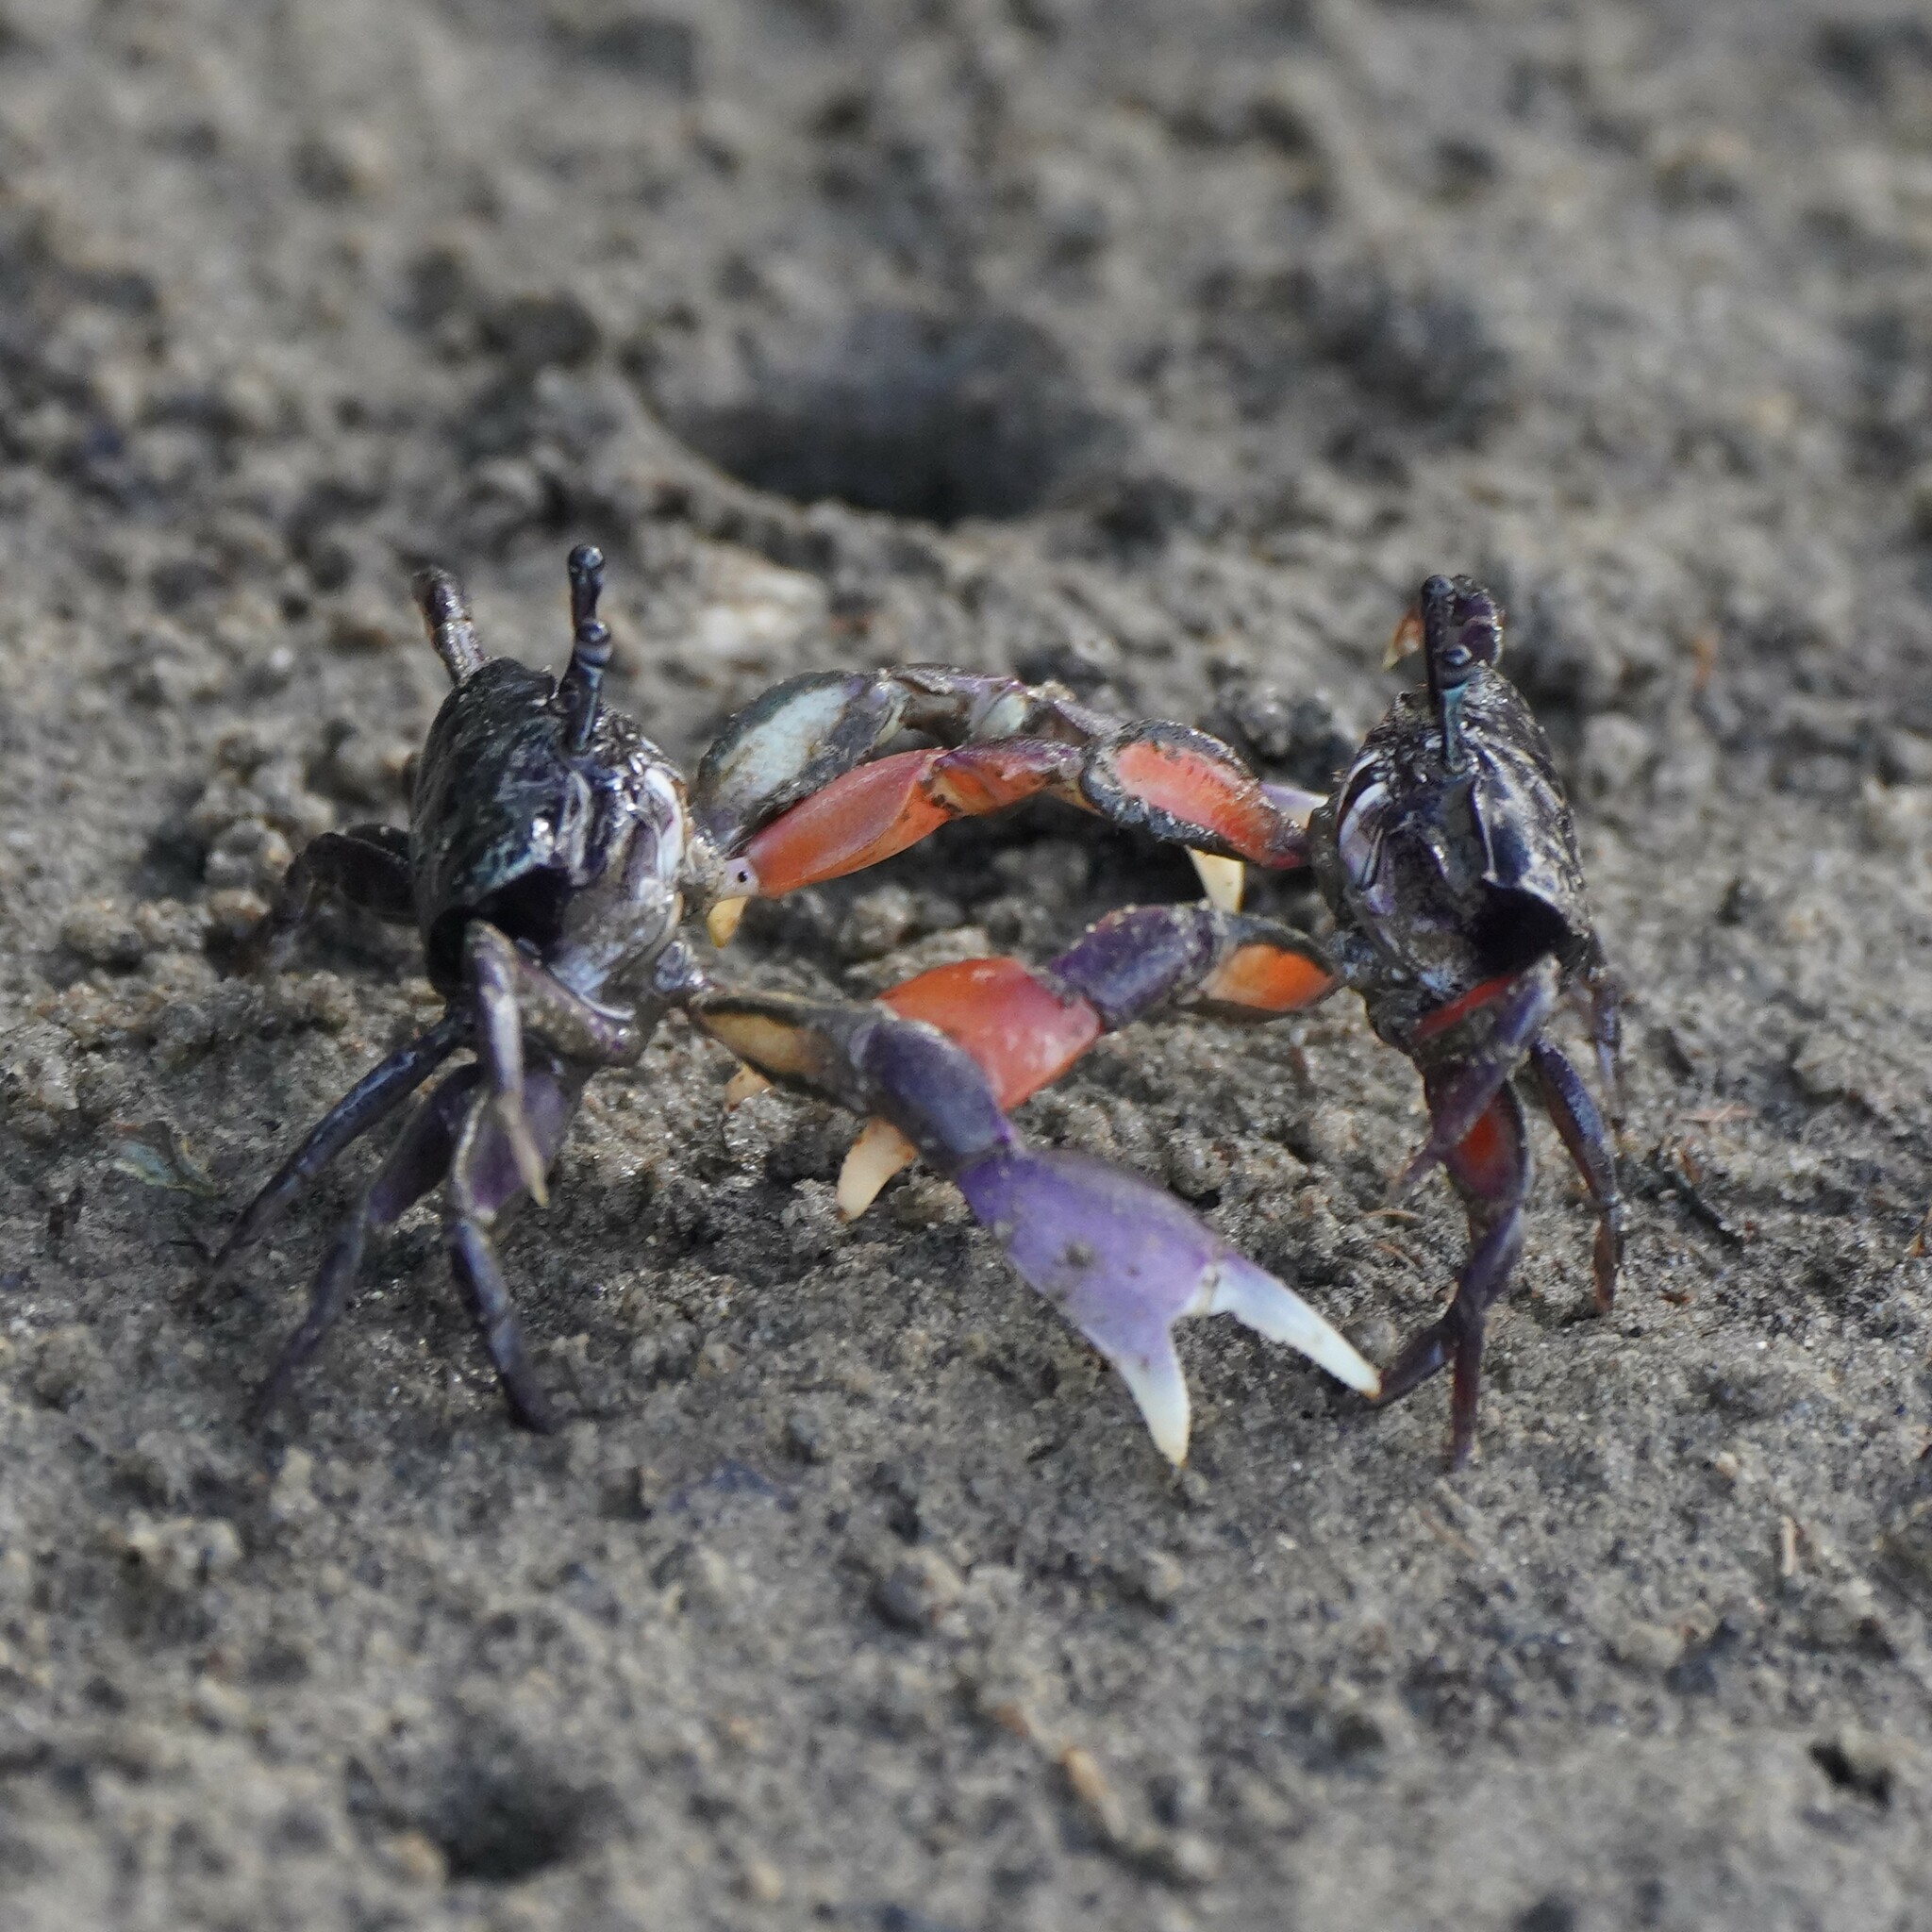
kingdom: Animalia
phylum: Arthropoda
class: Malacostraca
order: Decapoda
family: Heloeciidae
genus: Heloecius
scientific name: Heloecius cordiformis
